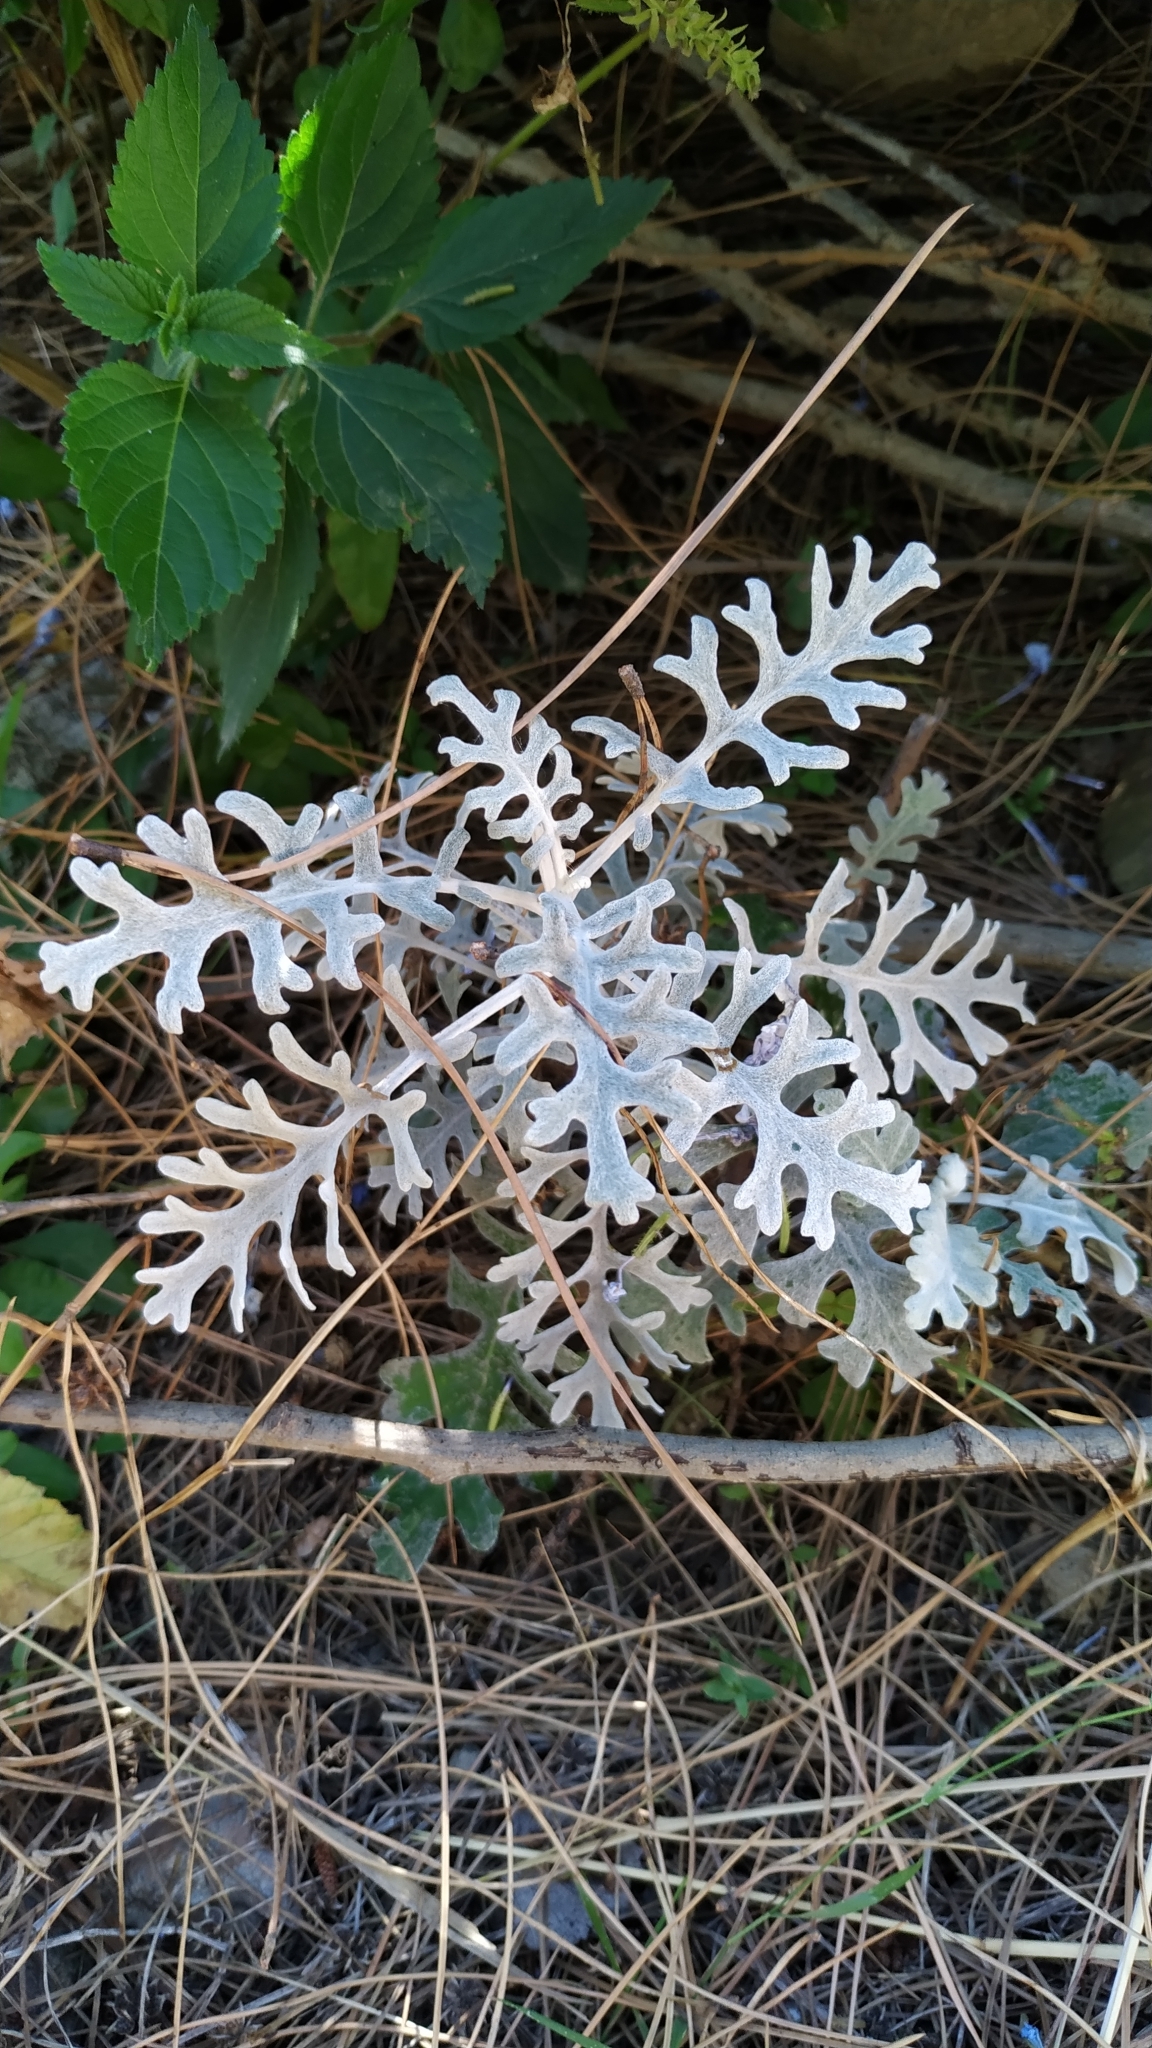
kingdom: Plantae
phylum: Tracheophyta
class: Magnoliopsida
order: Asterales
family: Asteraceae
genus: Jacobaea
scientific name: Jacobaea maritima
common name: Silver ragwort
